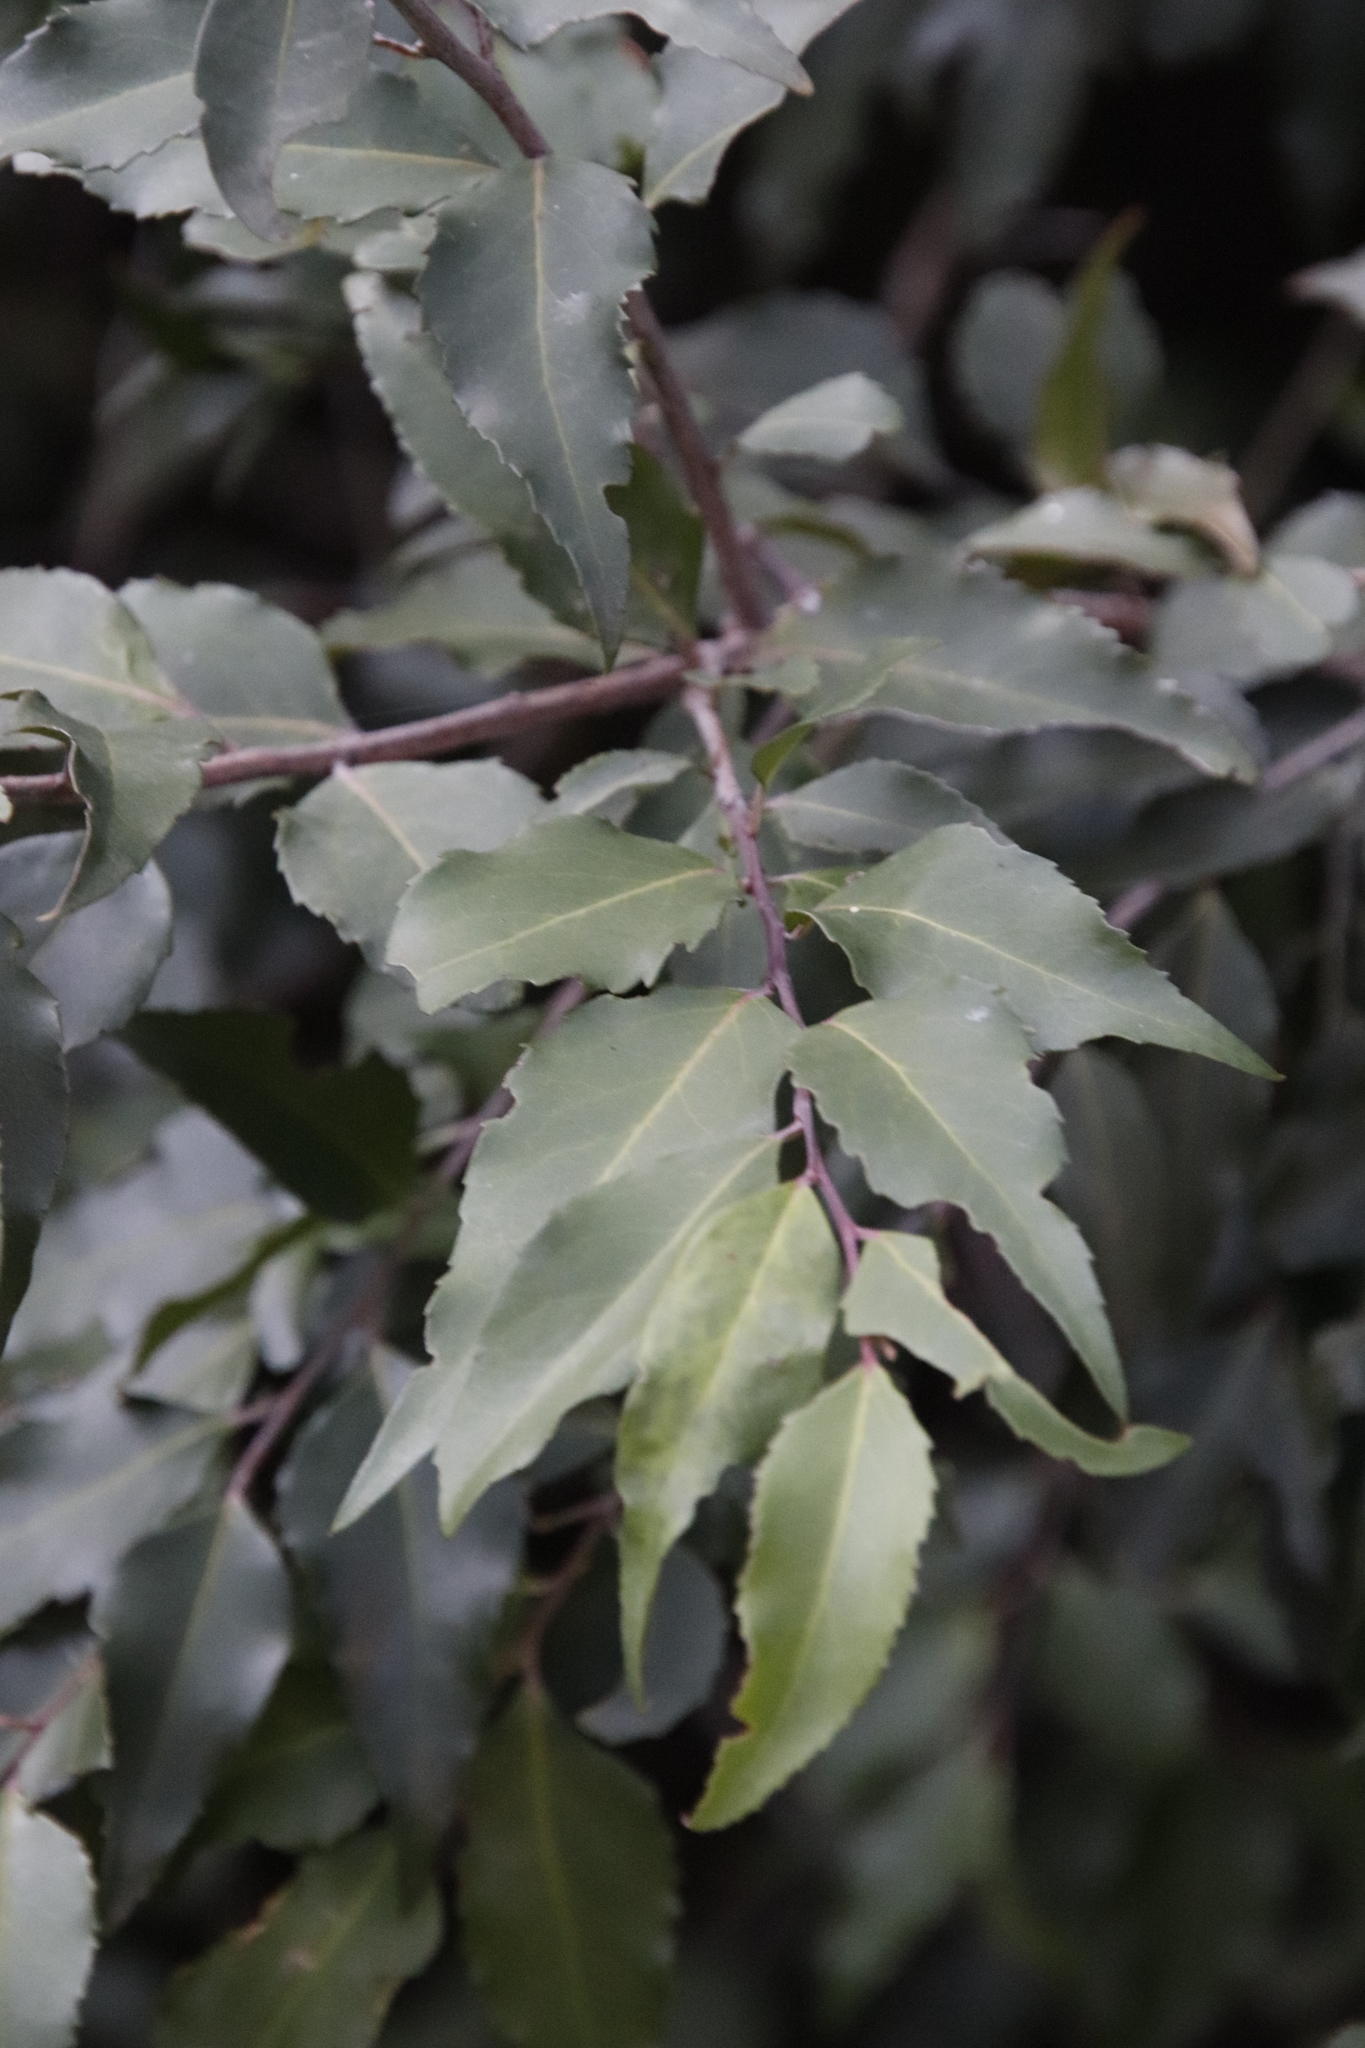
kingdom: Plantae
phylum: Tracheophyta
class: Magnoliopsida
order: Celastrales
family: Celastraceae
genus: Gymnosporia
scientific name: Gymnosporia acuminata
